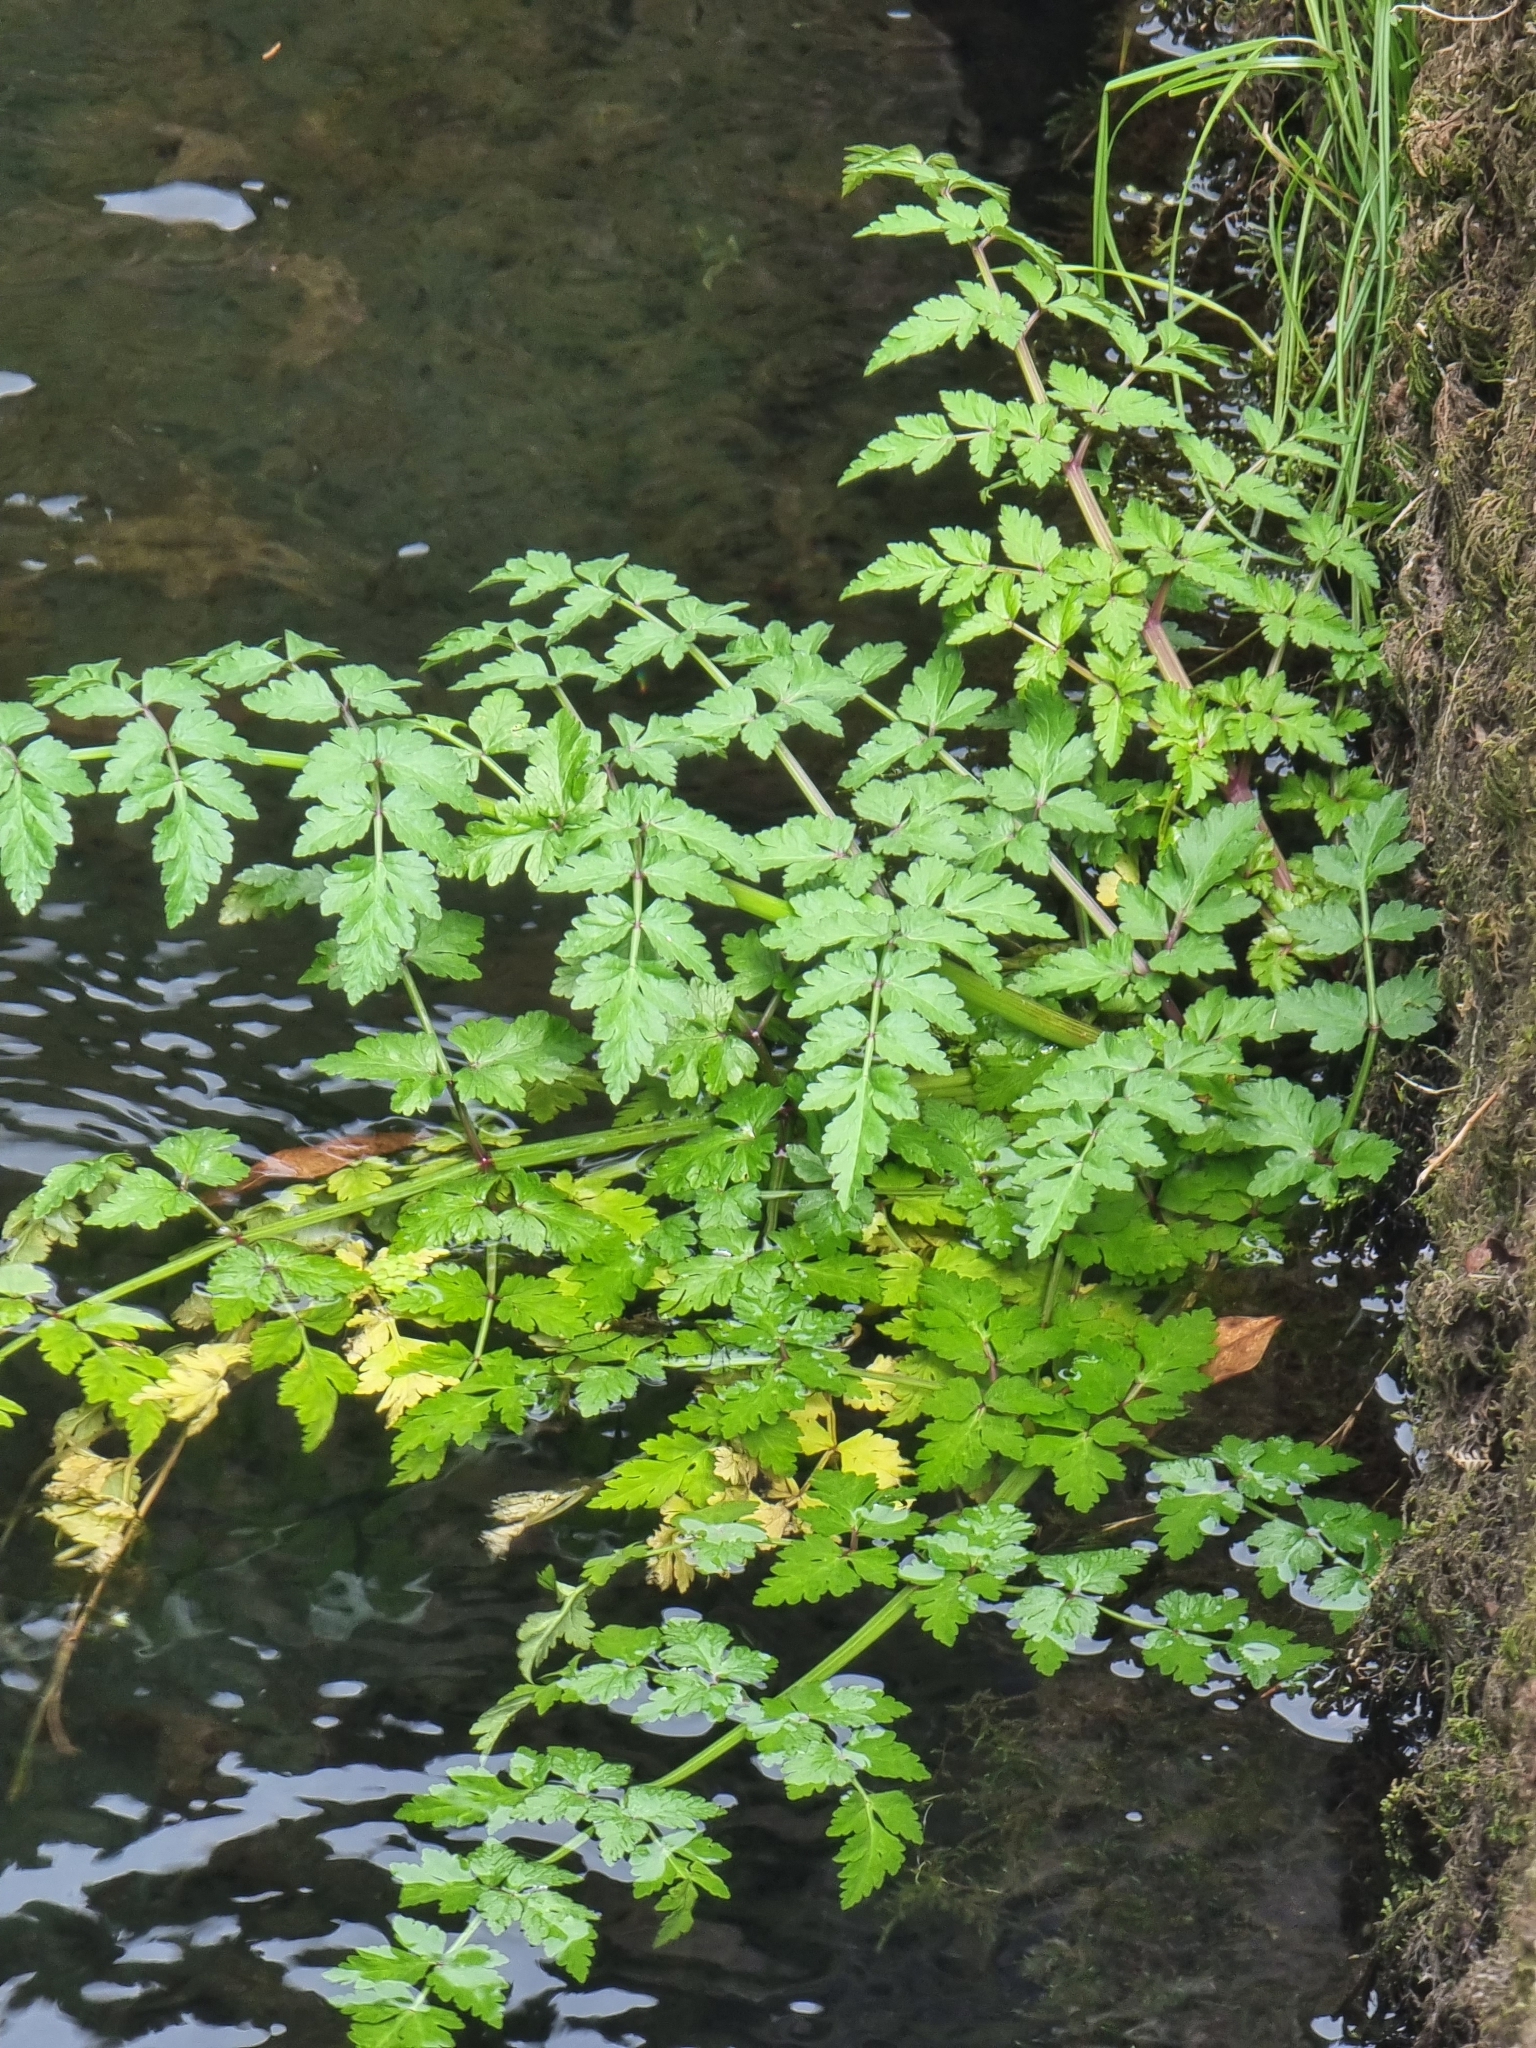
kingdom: Plantae
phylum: Tracheophyta
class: Magnoliopsida
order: Apiales
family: Apiaceae
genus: Oenanthe
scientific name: Oenanthe divaricata
